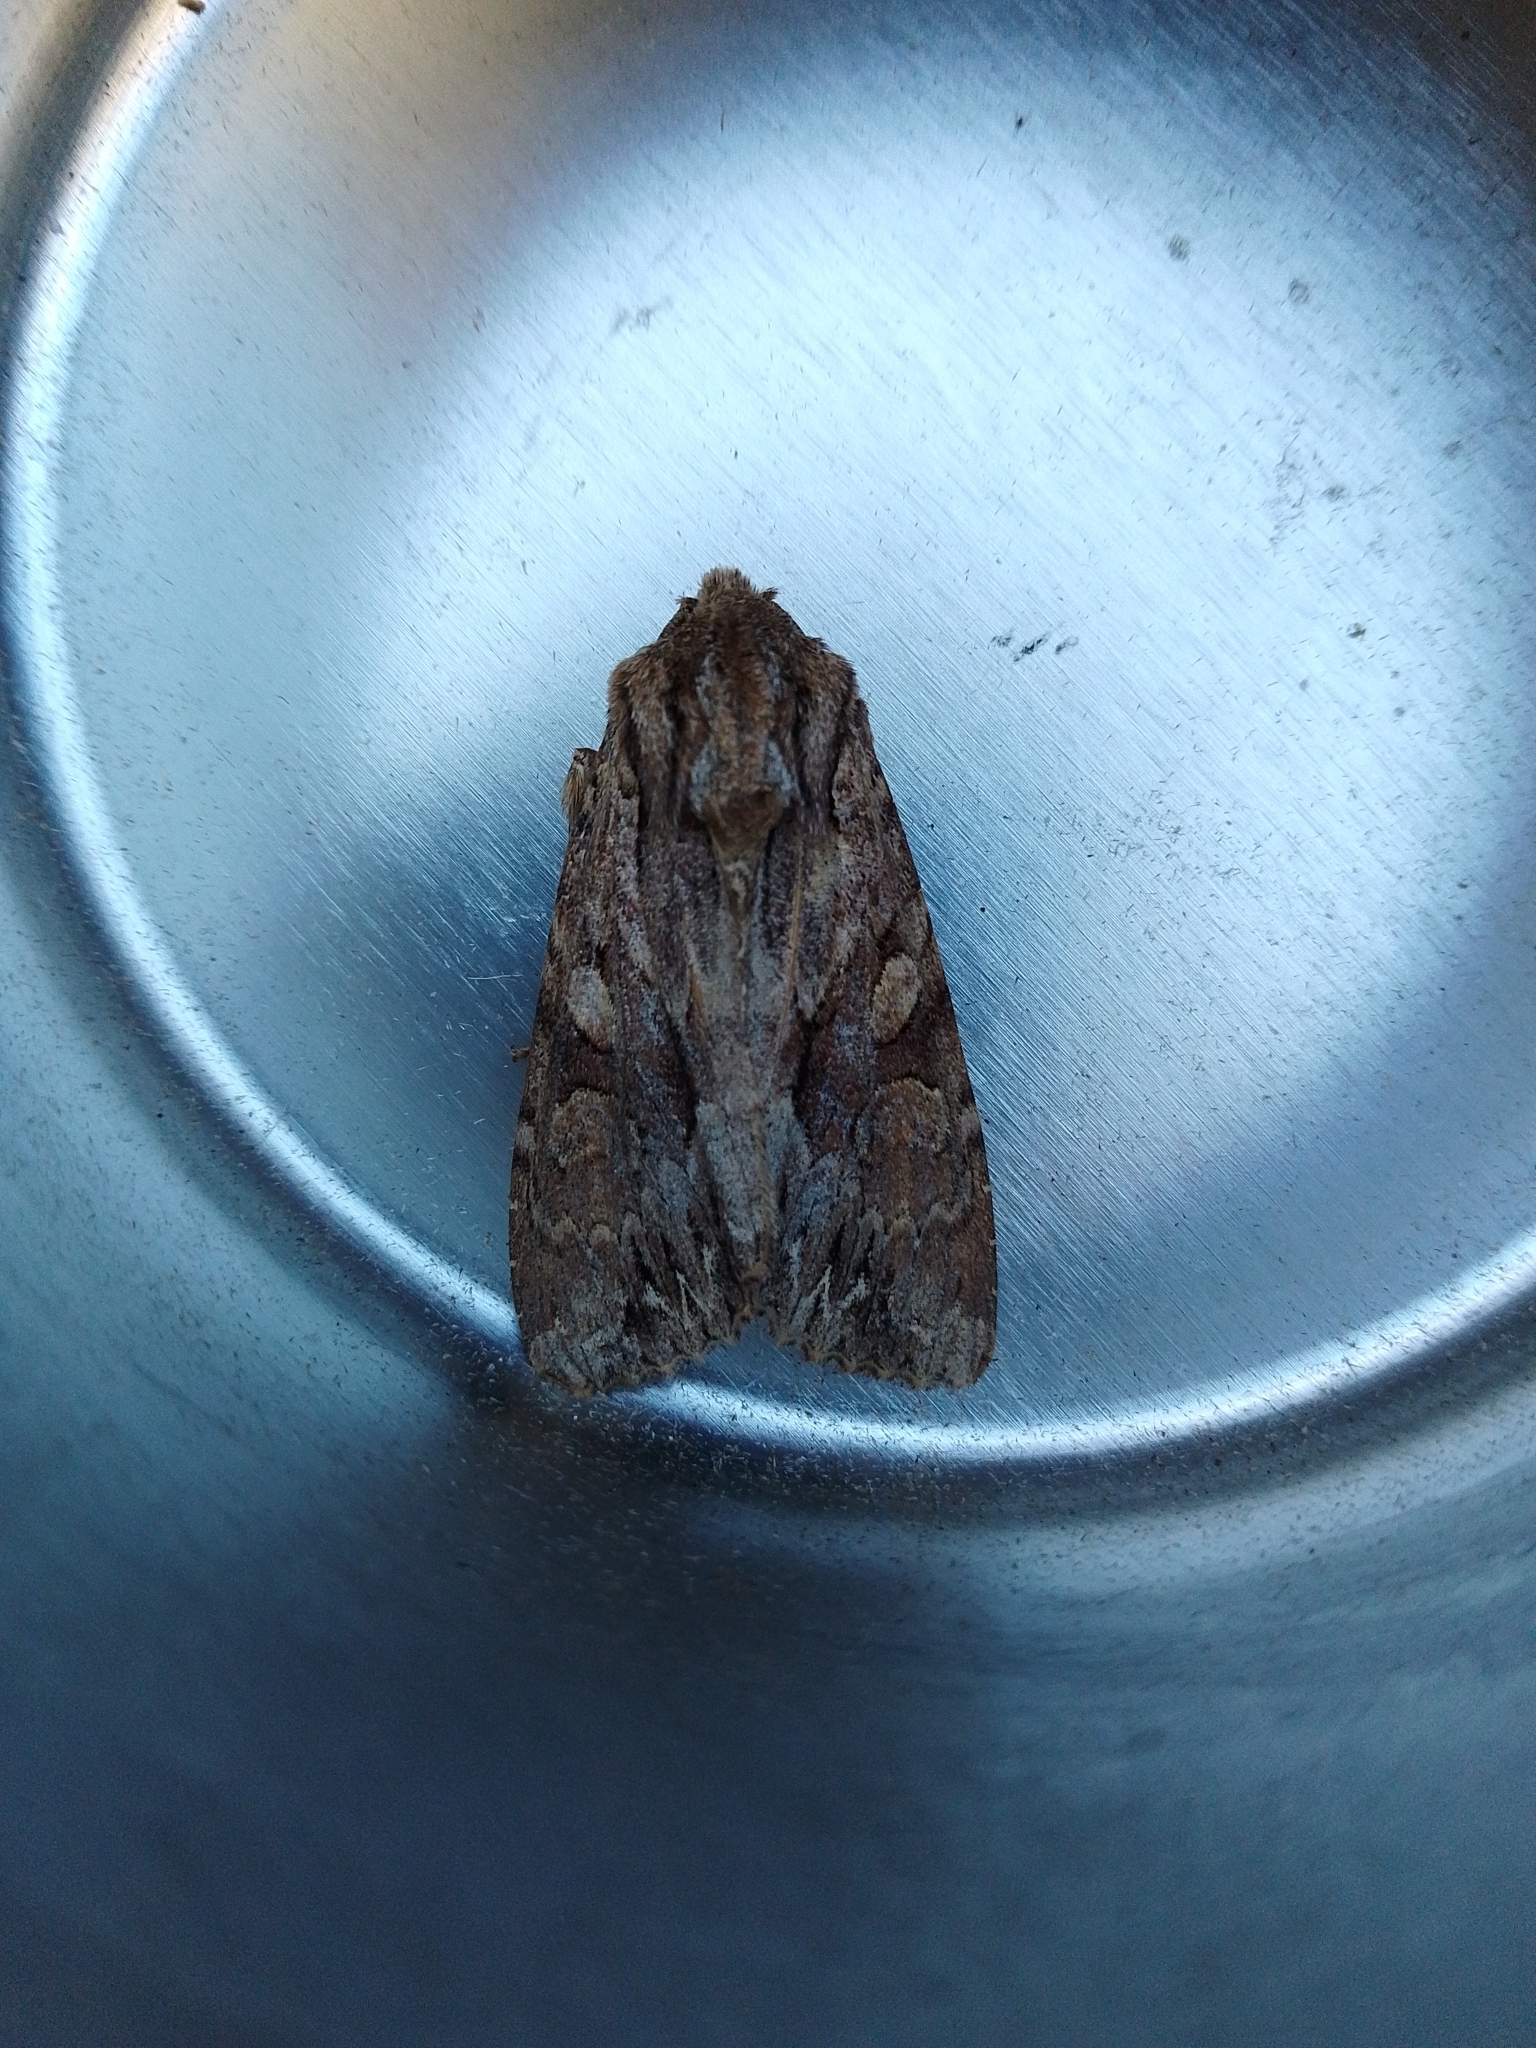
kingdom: Animalia
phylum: Arthropoda
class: Insecta
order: Lepidoptera
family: Noctuidae
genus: Apamea
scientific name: Apamea monoglypha
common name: Dark arches
